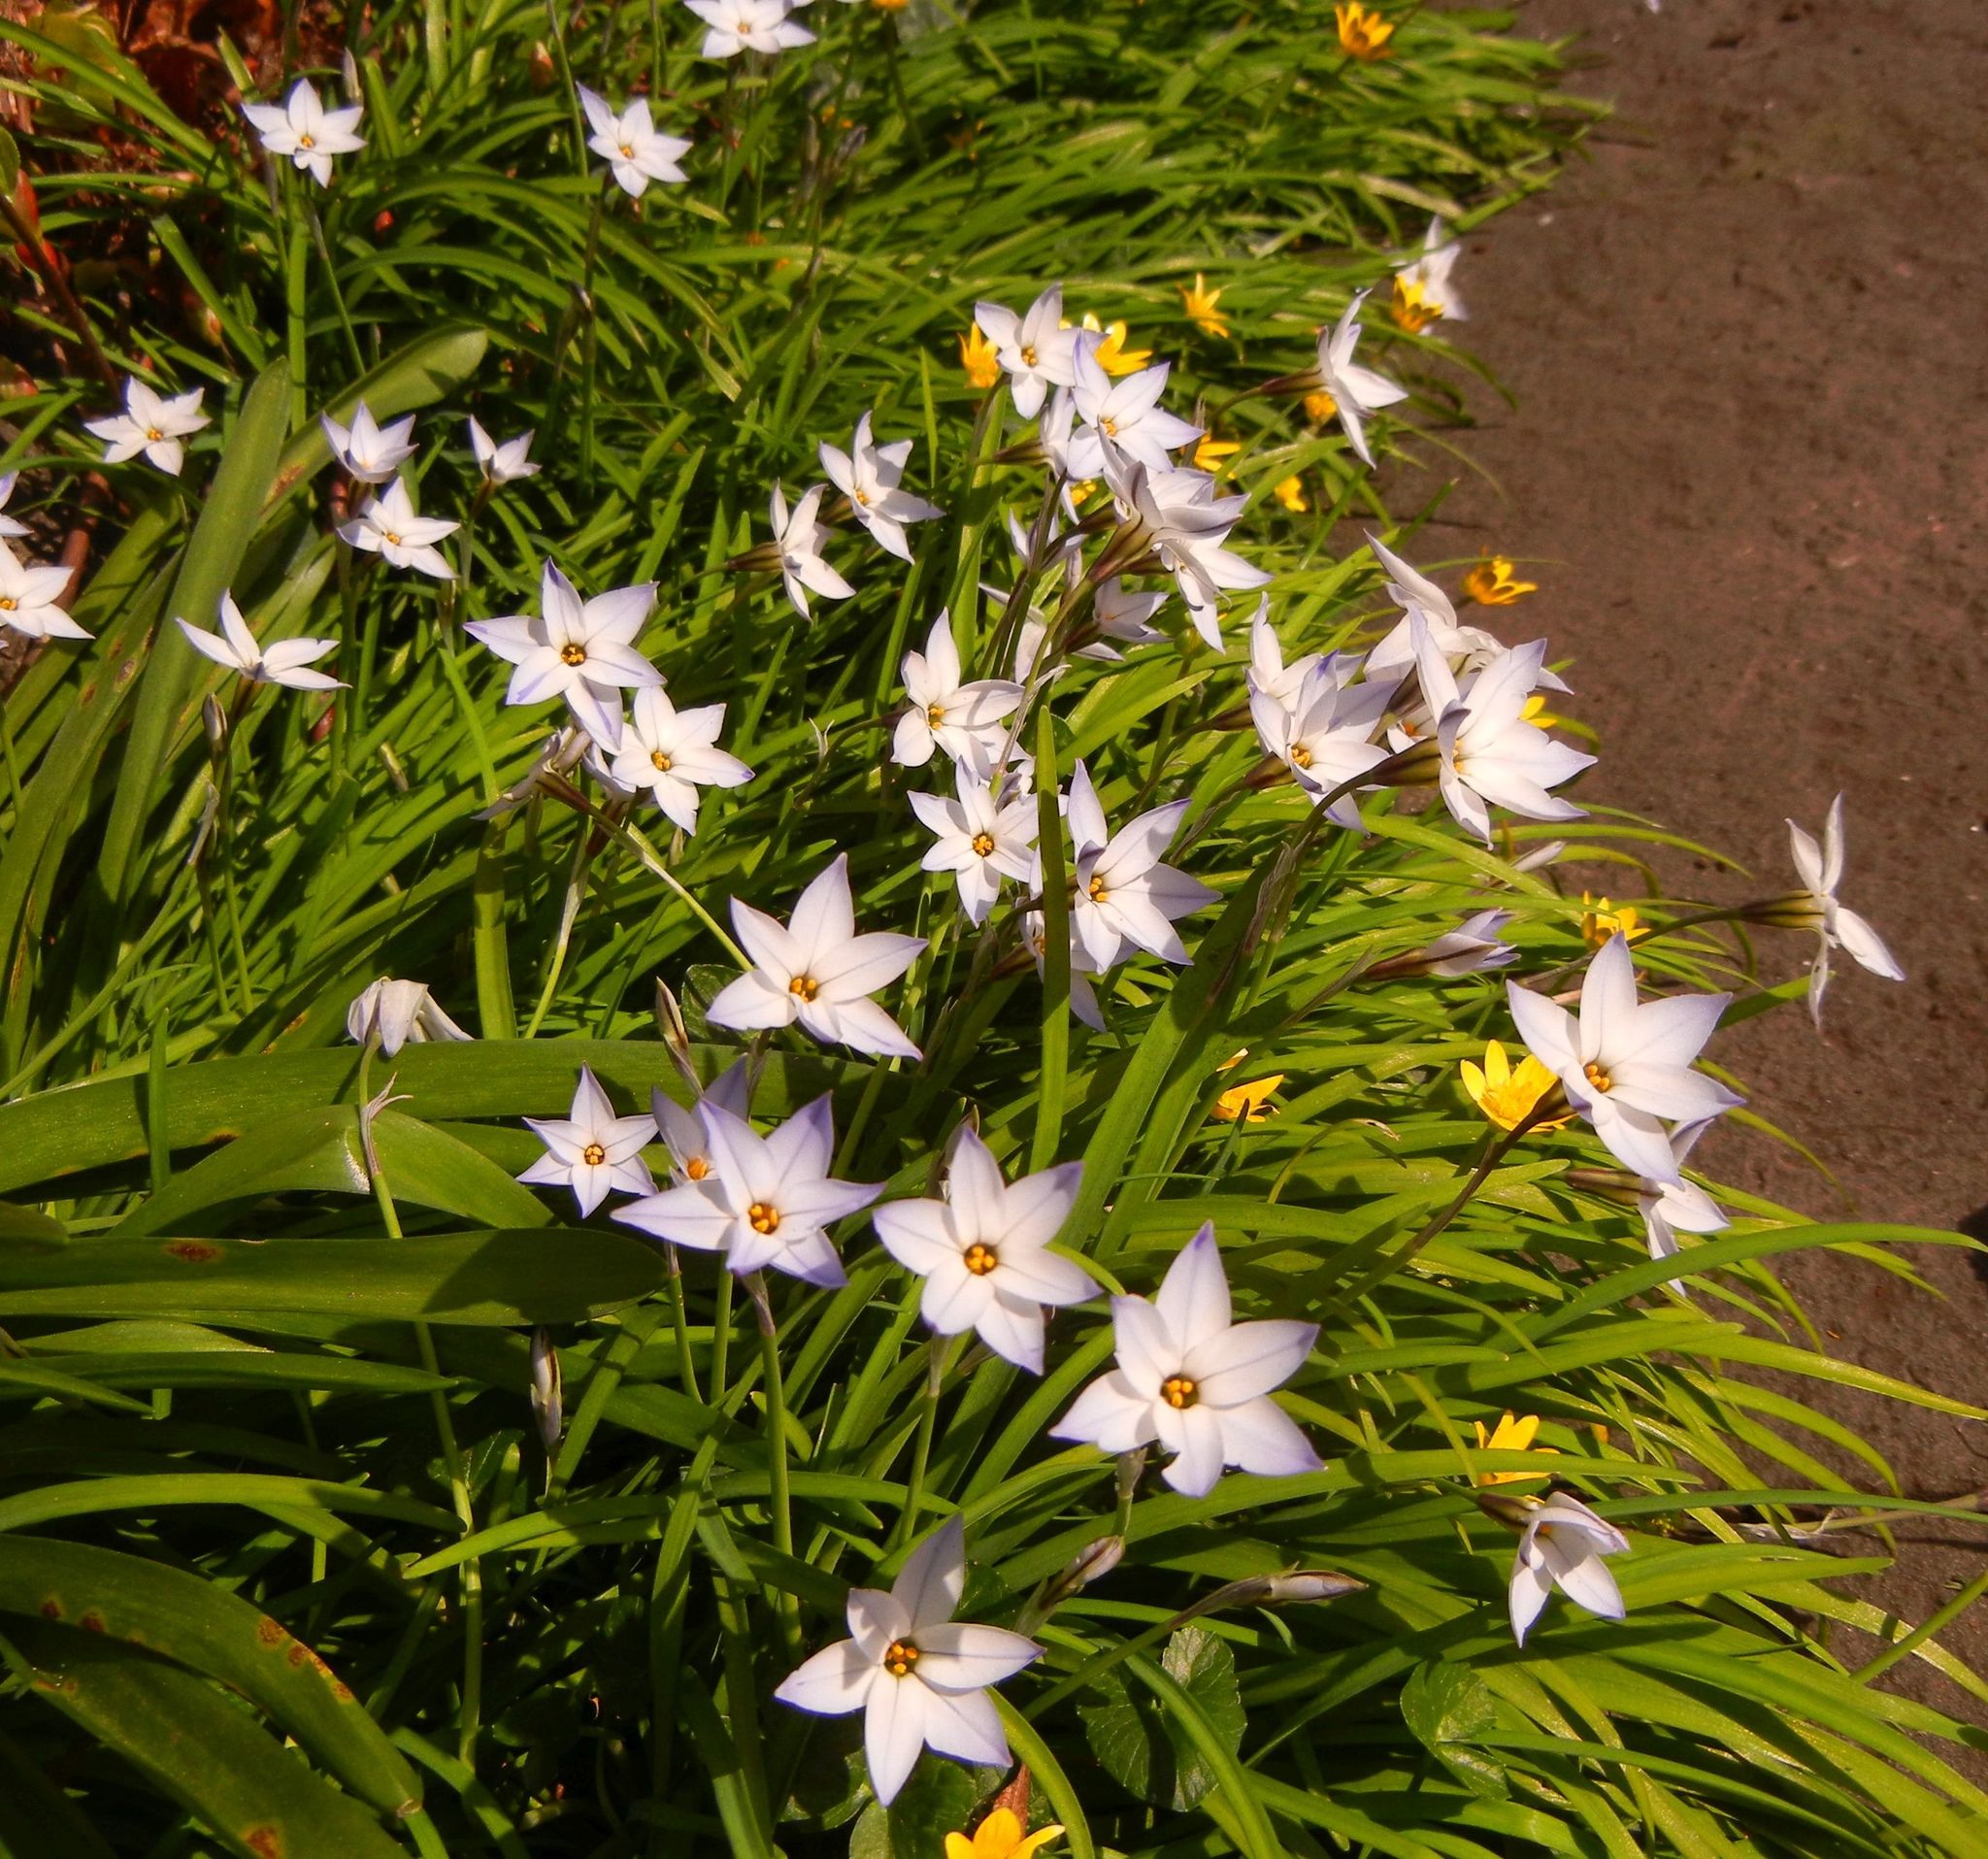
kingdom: Plantae
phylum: Tracheophyta
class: Liliopsida
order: Asparagales
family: Amaryllidaceae
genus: Ipheion
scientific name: Ipheion uniflorum
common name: Spring starflower
